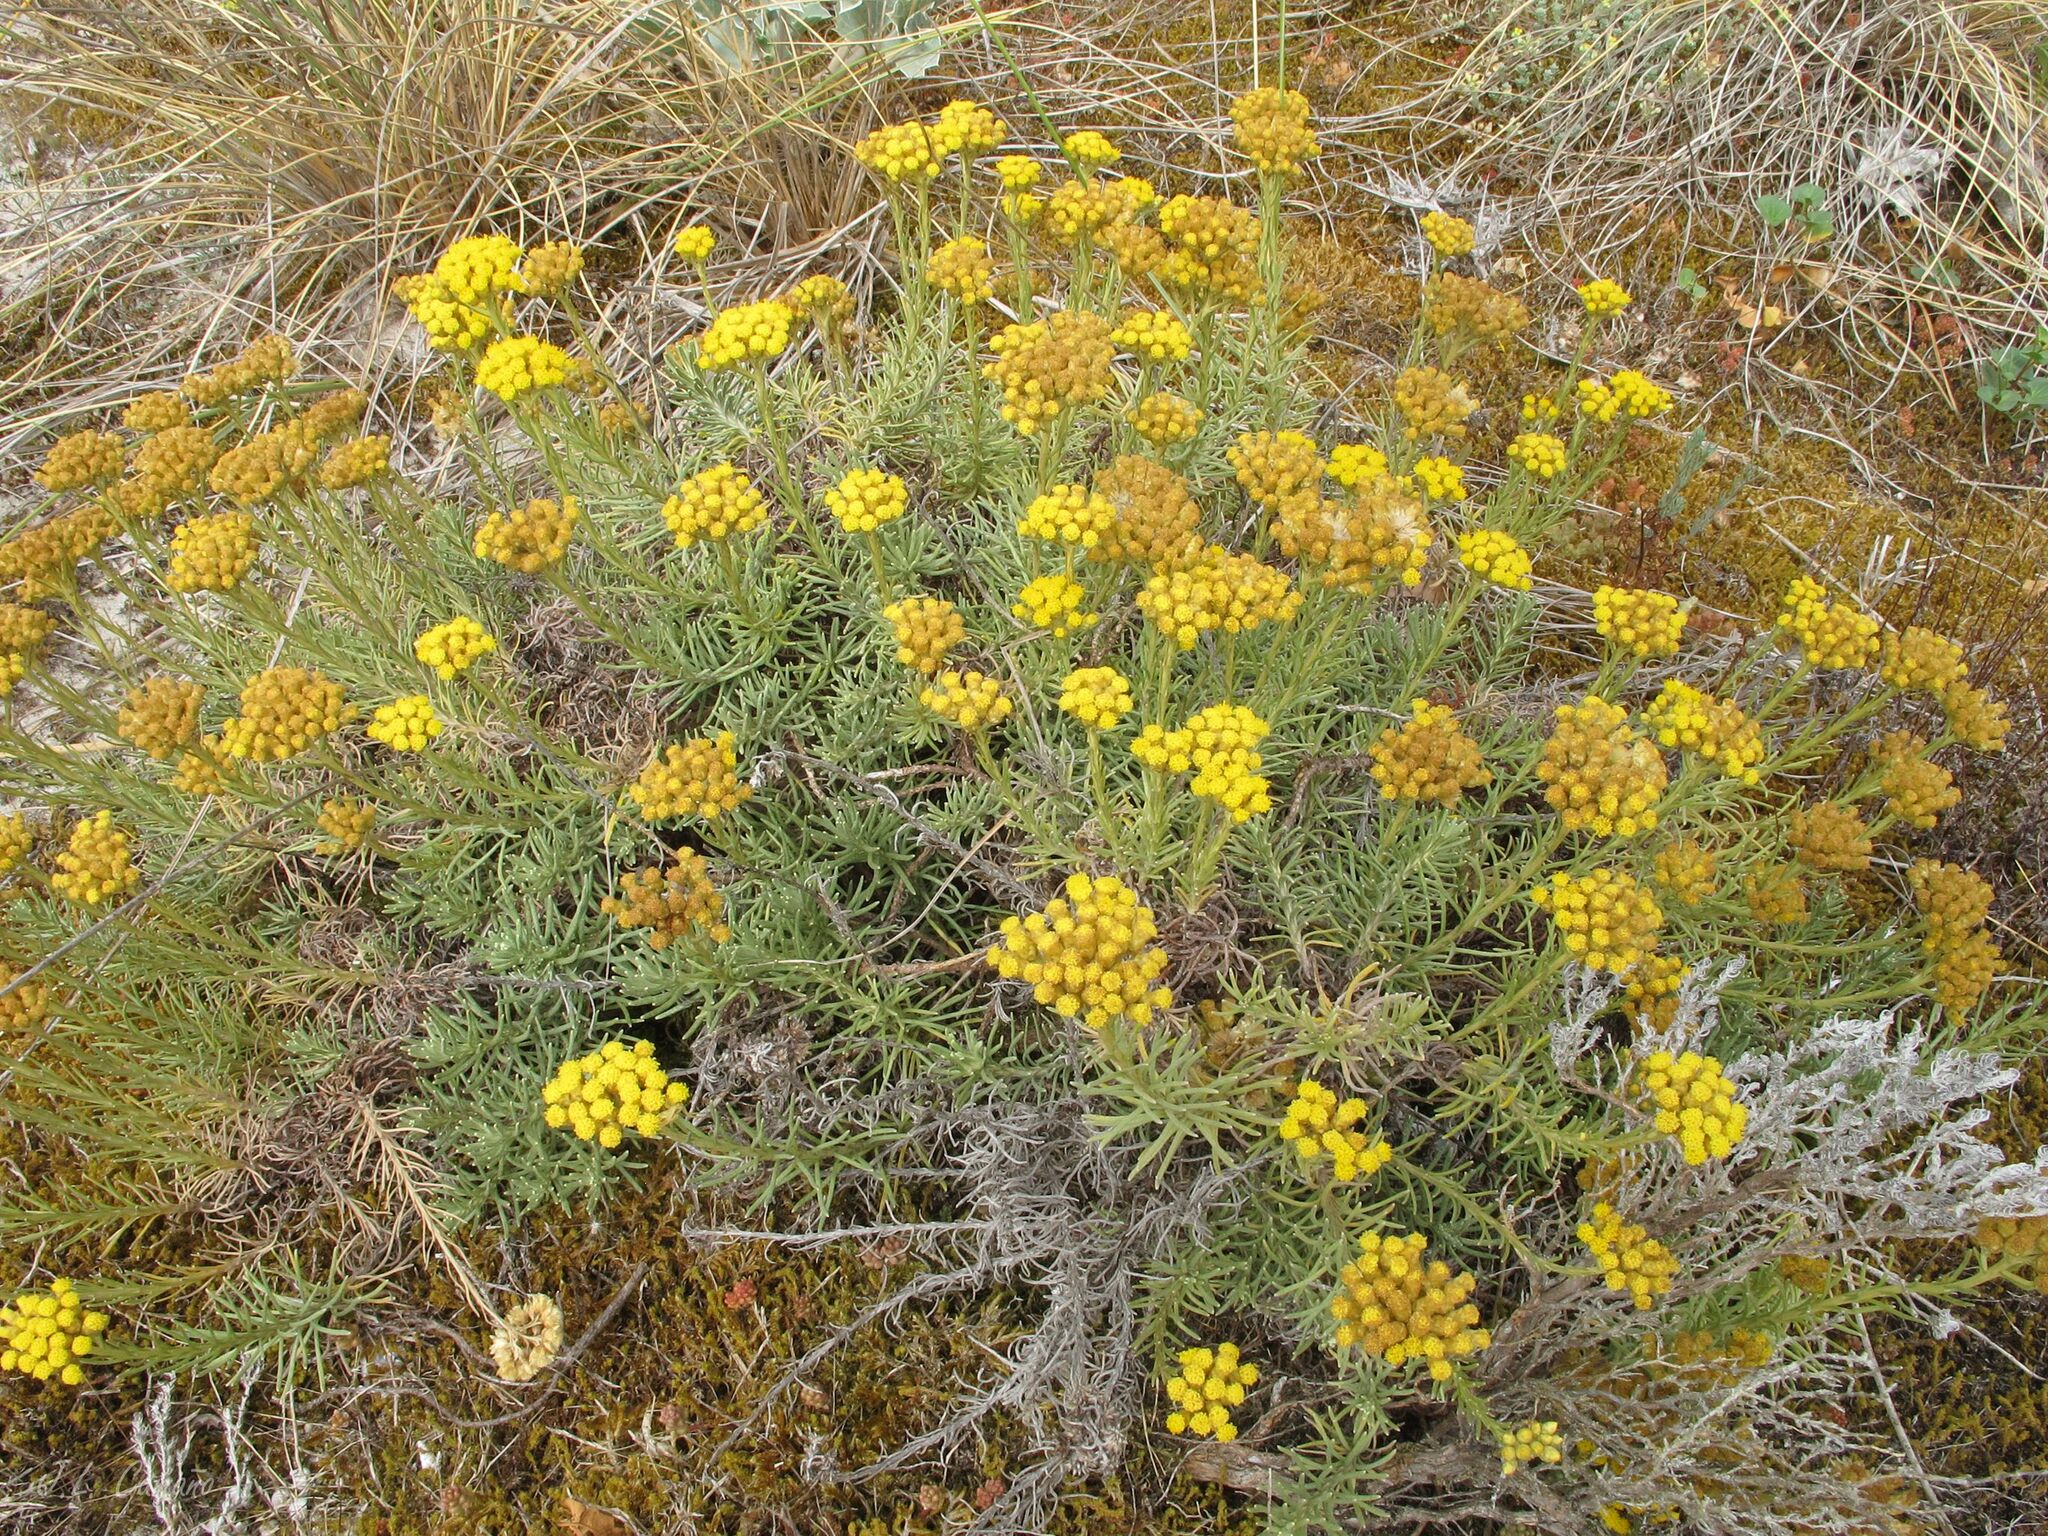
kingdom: Plantae
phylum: Tracheophyta
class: Magnoliopsida
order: Asterales
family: Asteraceae
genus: Helichrysum
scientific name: Helichrysum serotinum
